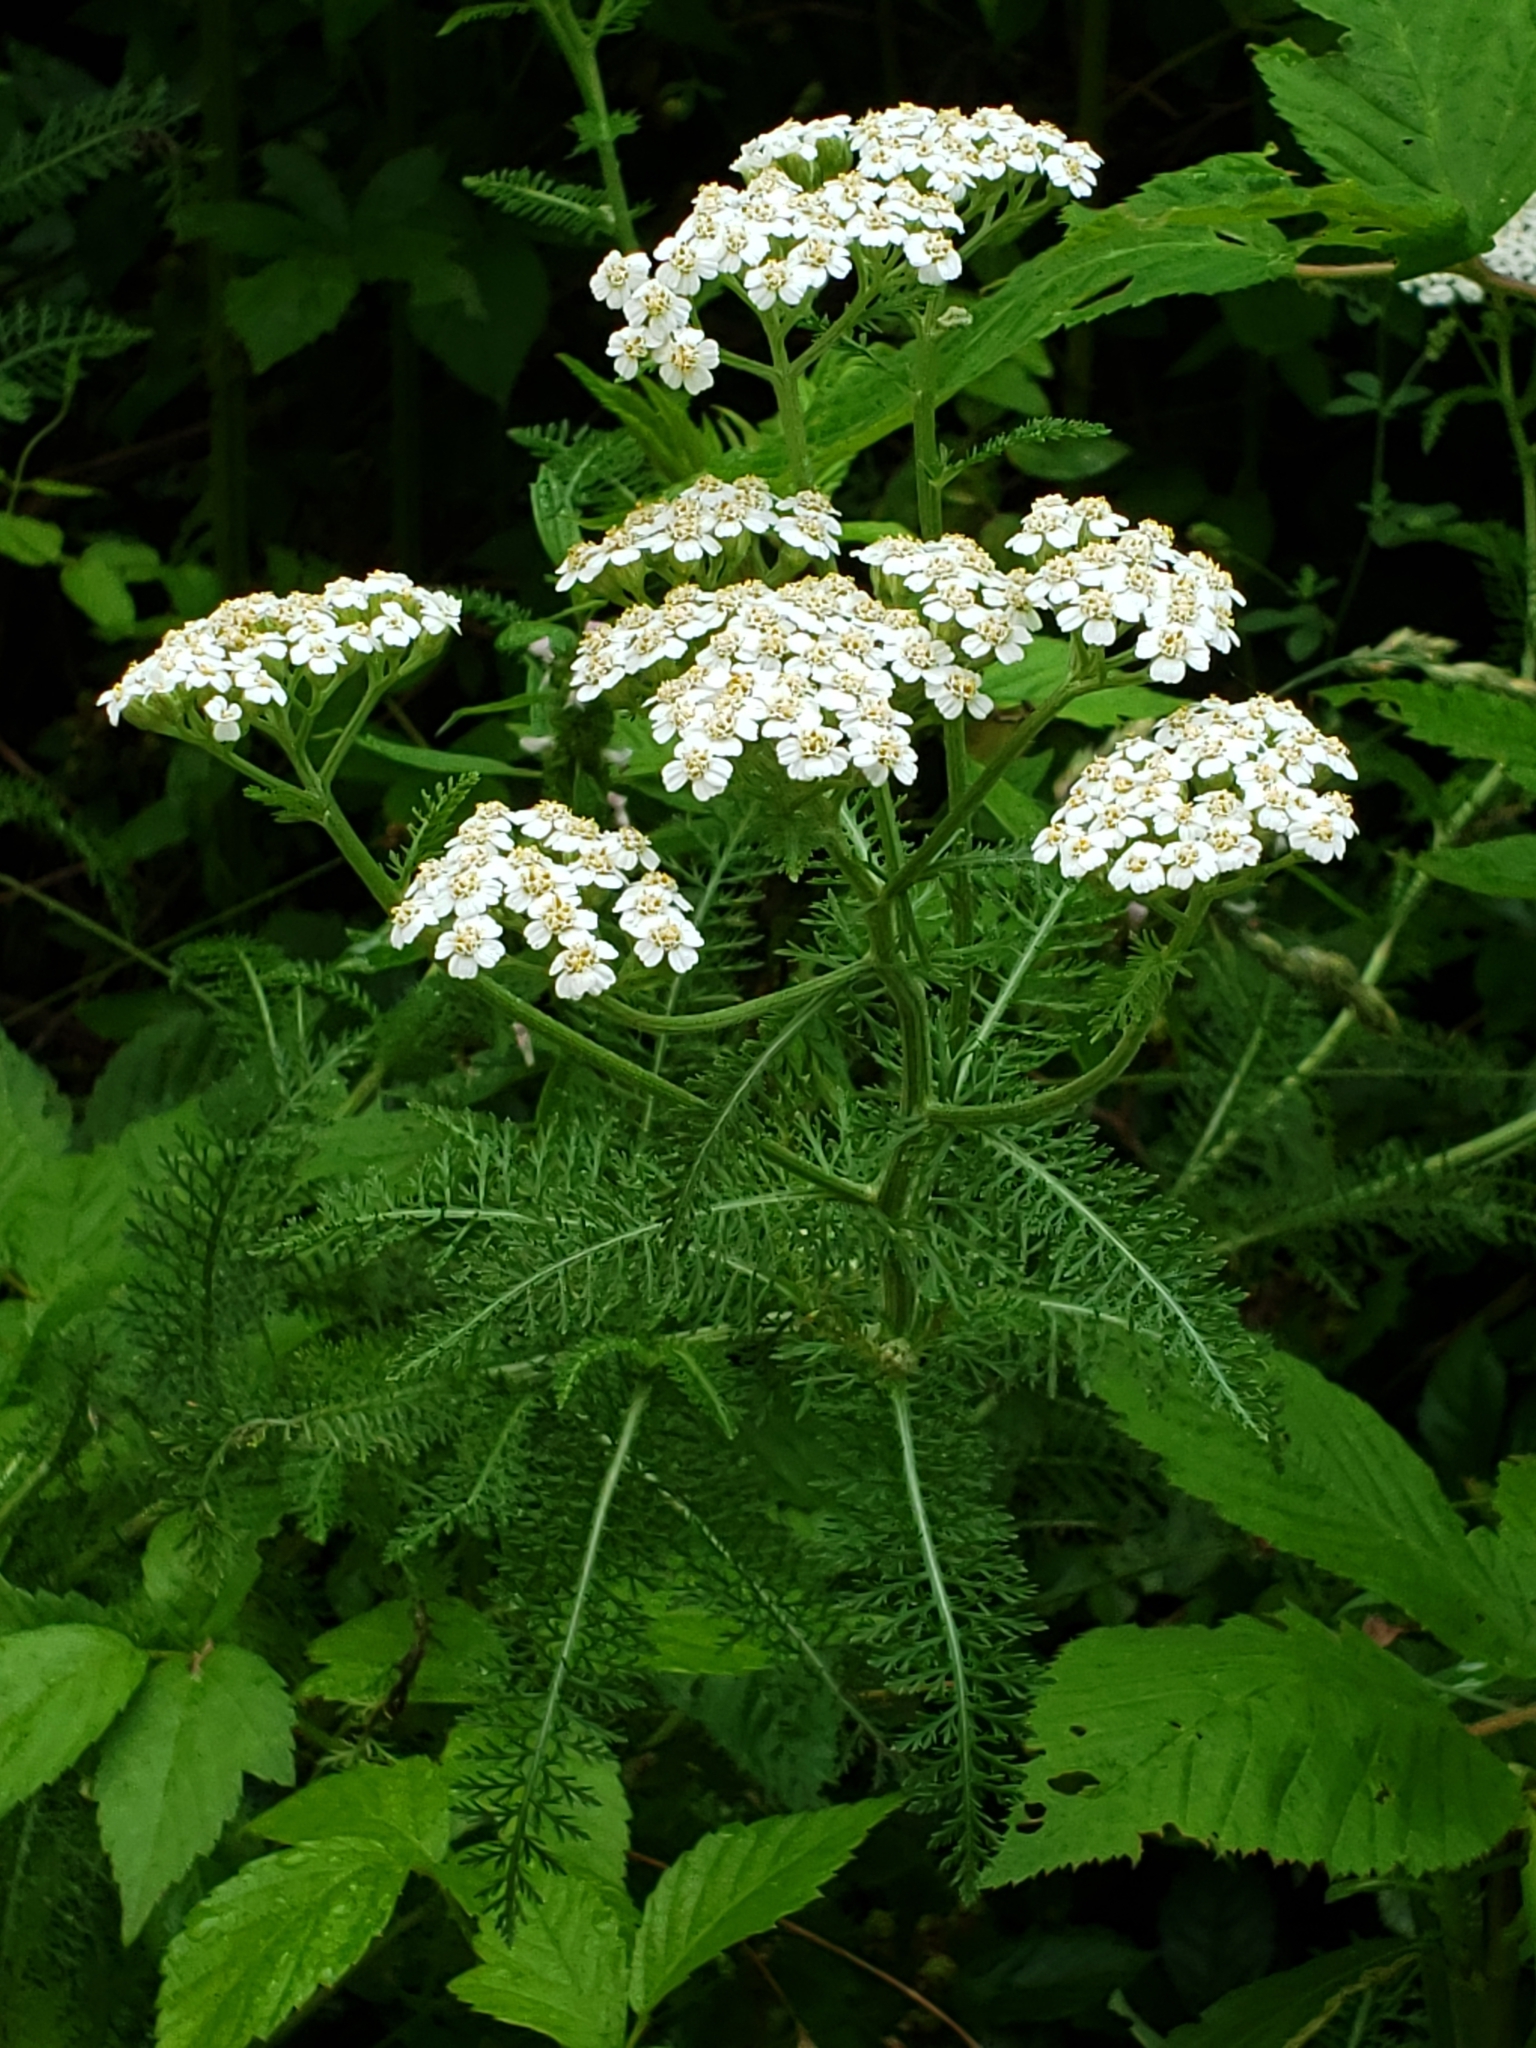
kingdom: Plantae
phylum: Tracheophyta
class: Magnoliopsida
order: Asterales
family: Asteraceae
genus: Achillea
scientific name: Achillea millefolium
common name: Yarrow
